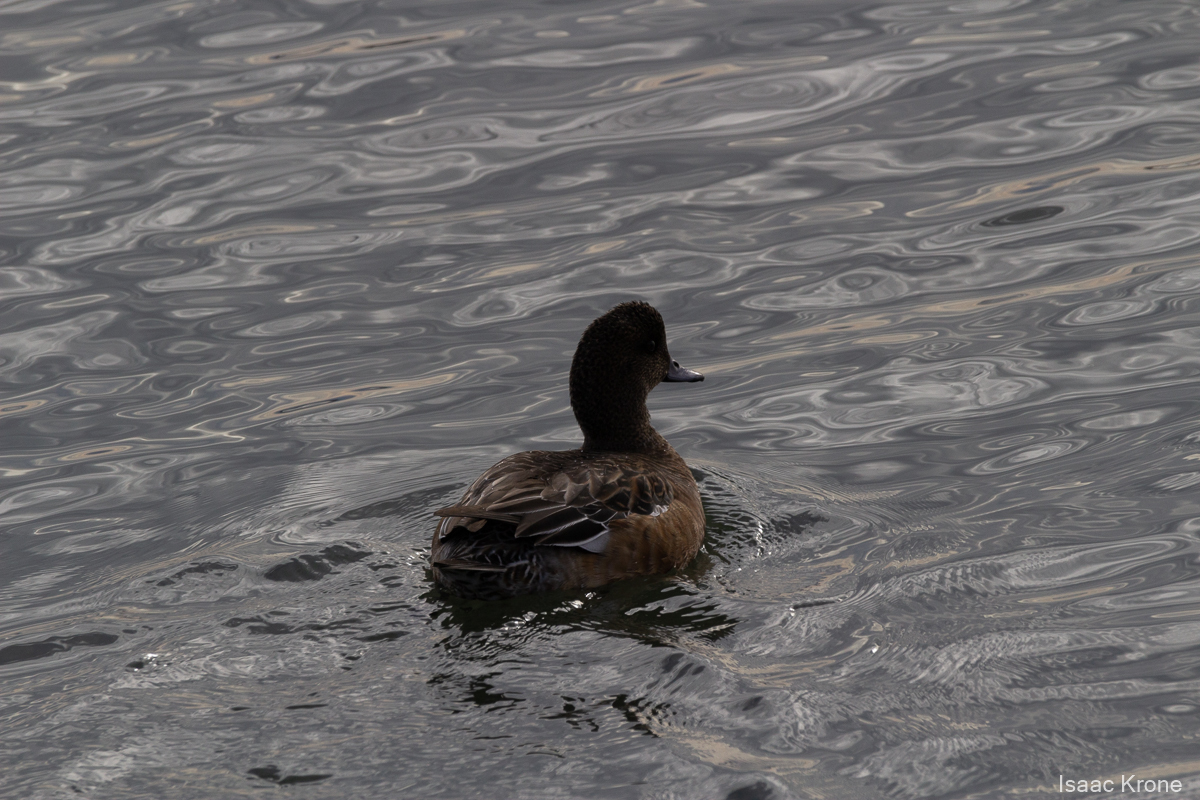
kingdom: Animalia
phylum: Chordata
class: Aves
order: Anseriformes
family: Anatidae
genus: Mareca
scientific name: Mareca americana
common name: American wigeon
